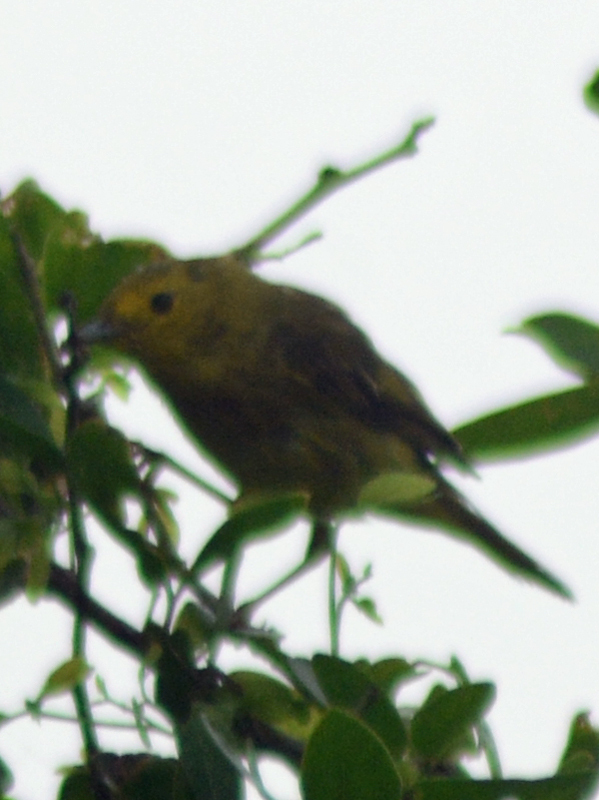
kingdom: Animalia
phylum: Chordata
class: Aves
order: Passeriformes
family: Parulidae
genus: Setophaga
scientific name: Setophaga petechia
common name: Yellow warbler
